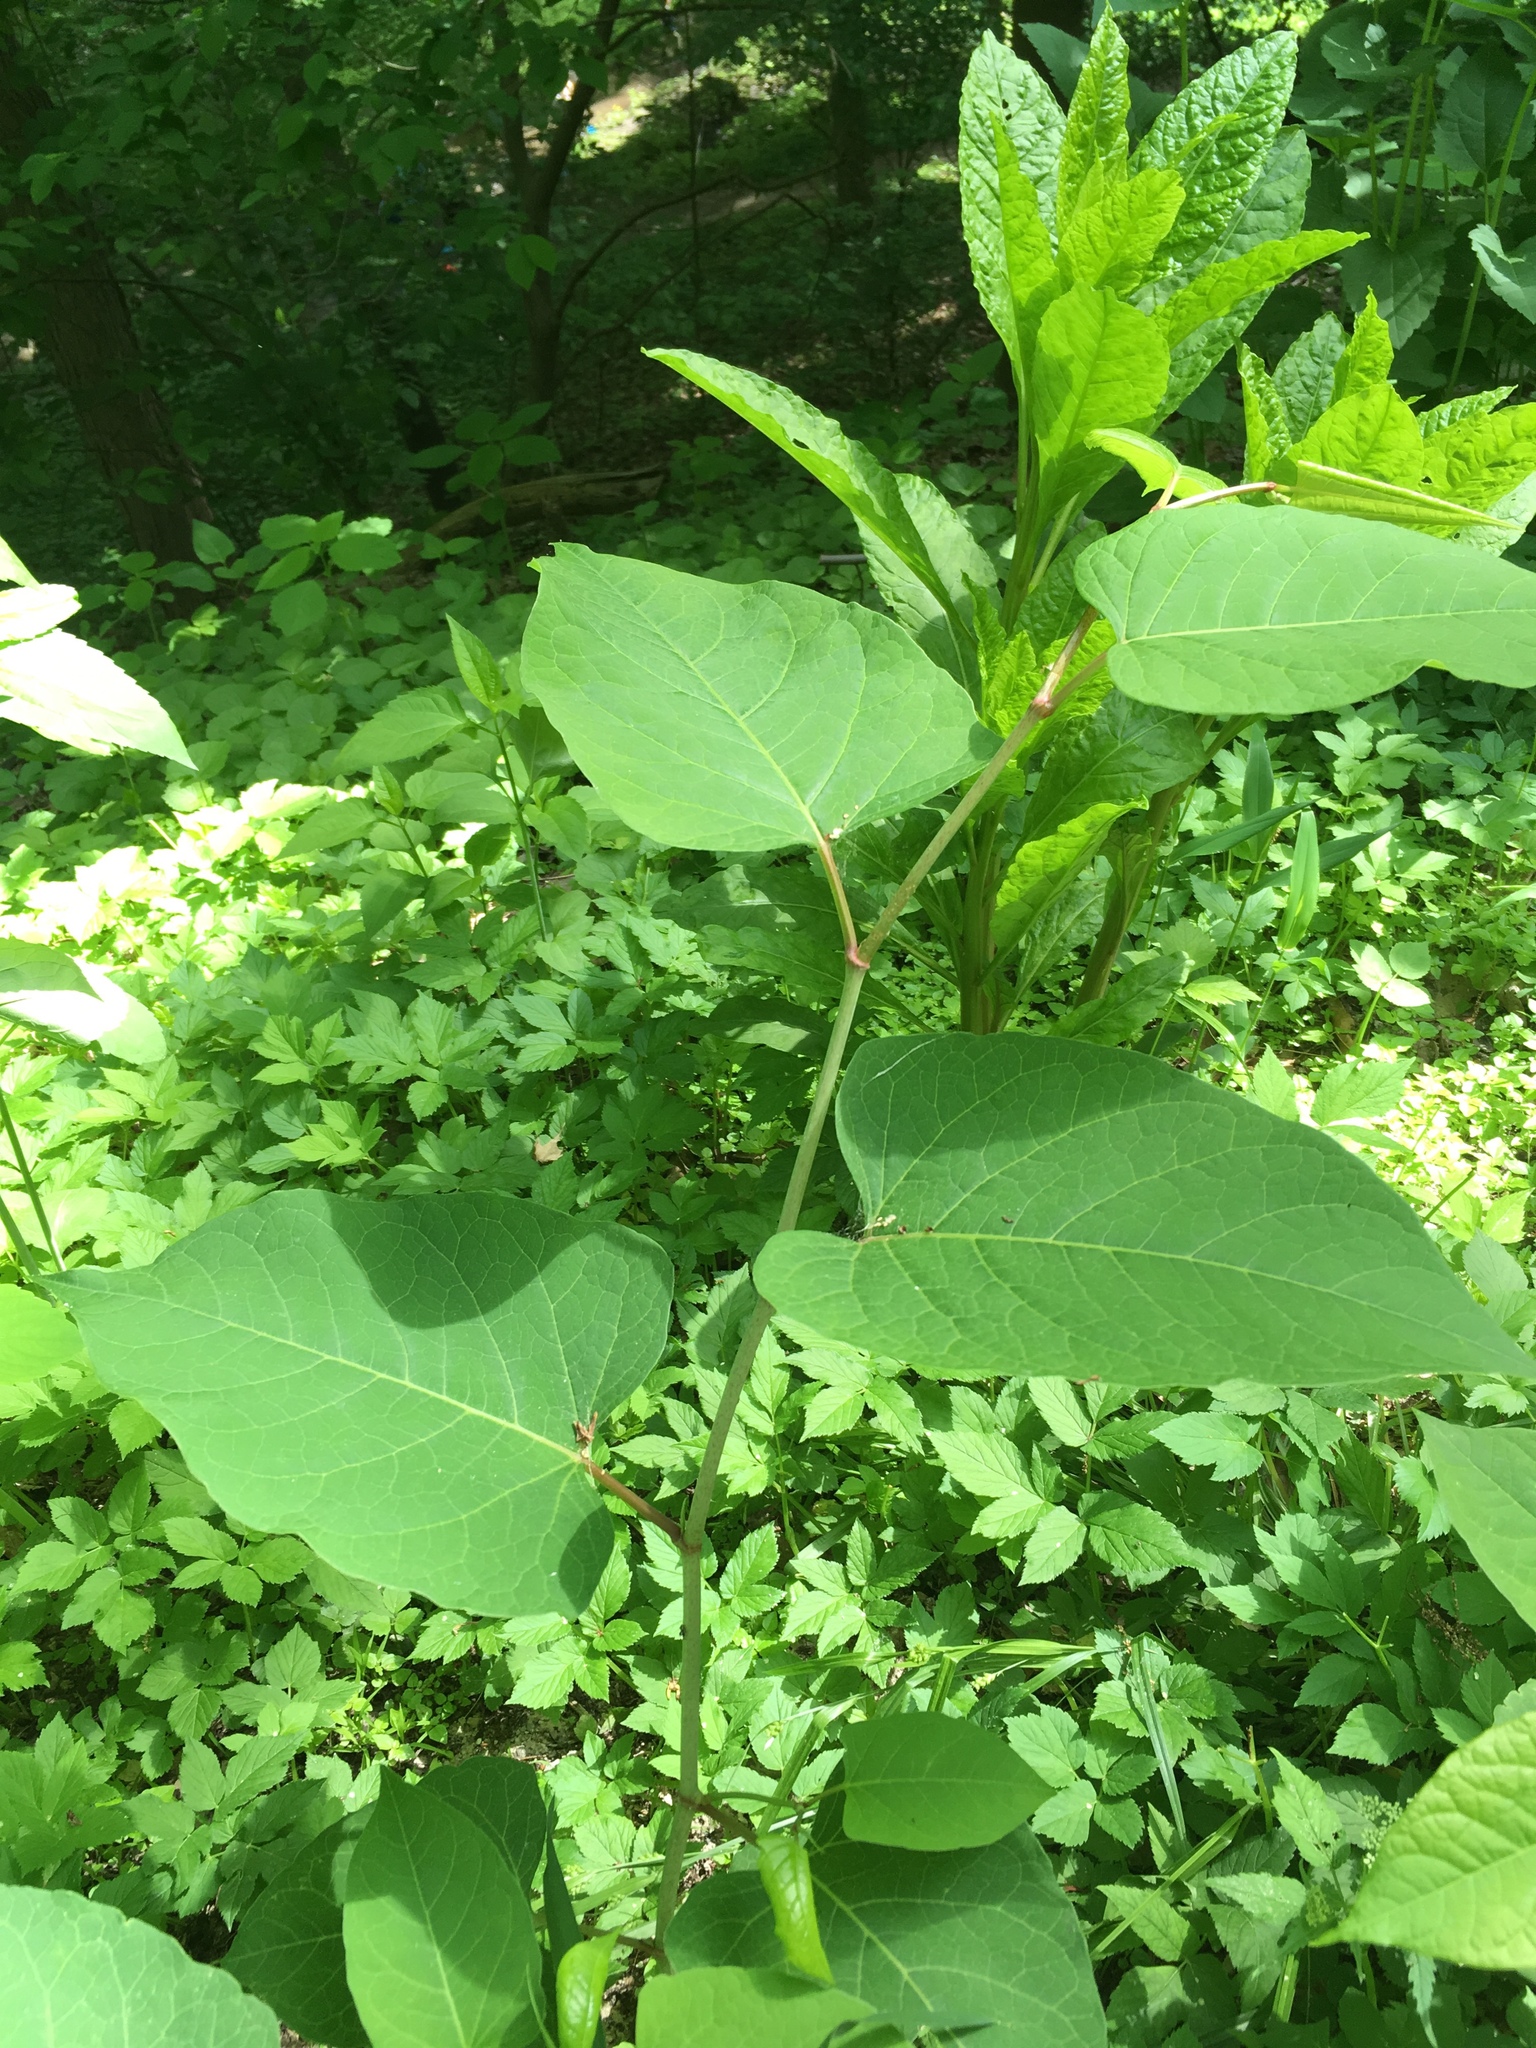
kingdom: Plantae
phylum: Tracheophyta
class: Magnoliopsida
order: Caryophyllales
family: Polygonaceae
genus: Reynoutria
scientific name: Reynoutria japonica
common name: Japanese knotweed
